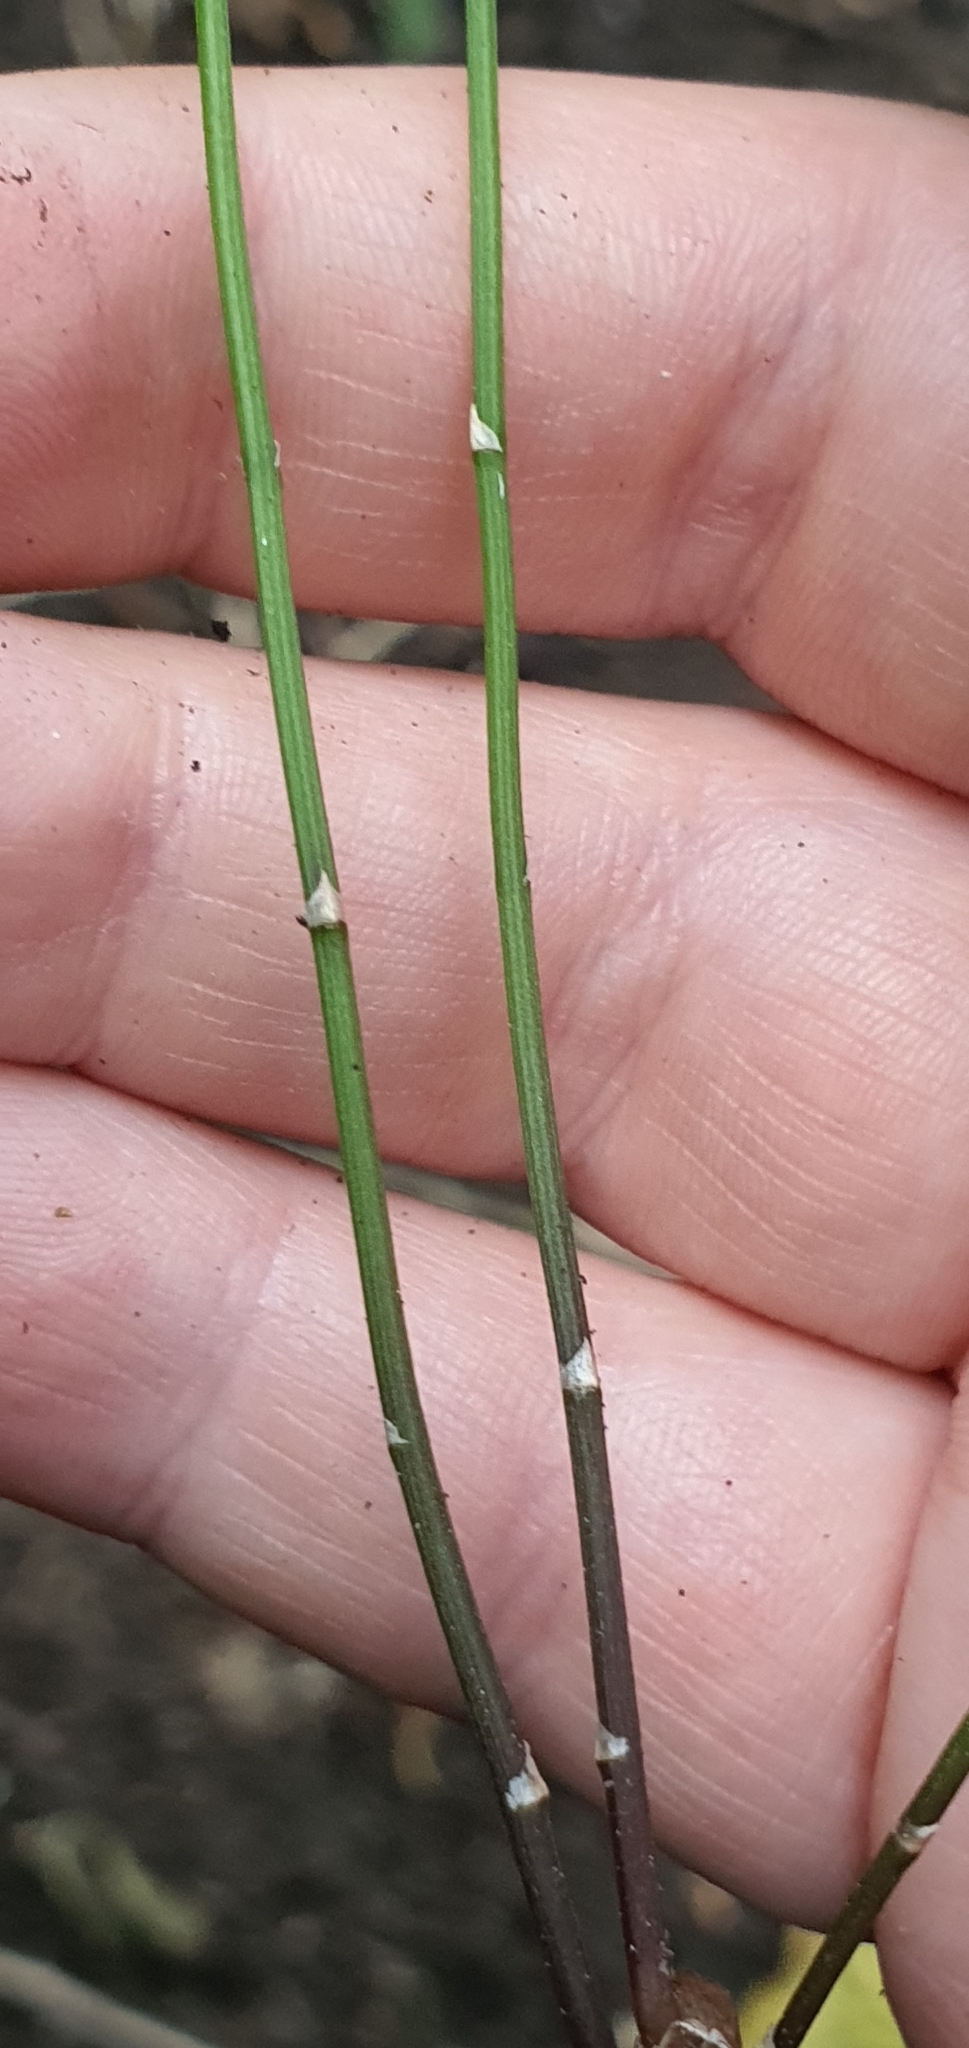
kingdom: Plantae
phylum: Tracheophyta
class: Liliopsida
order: Asparagales
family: Asparagaceae
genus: Asparagus
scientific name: Asparagus scandens
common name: Asparagus-fern
